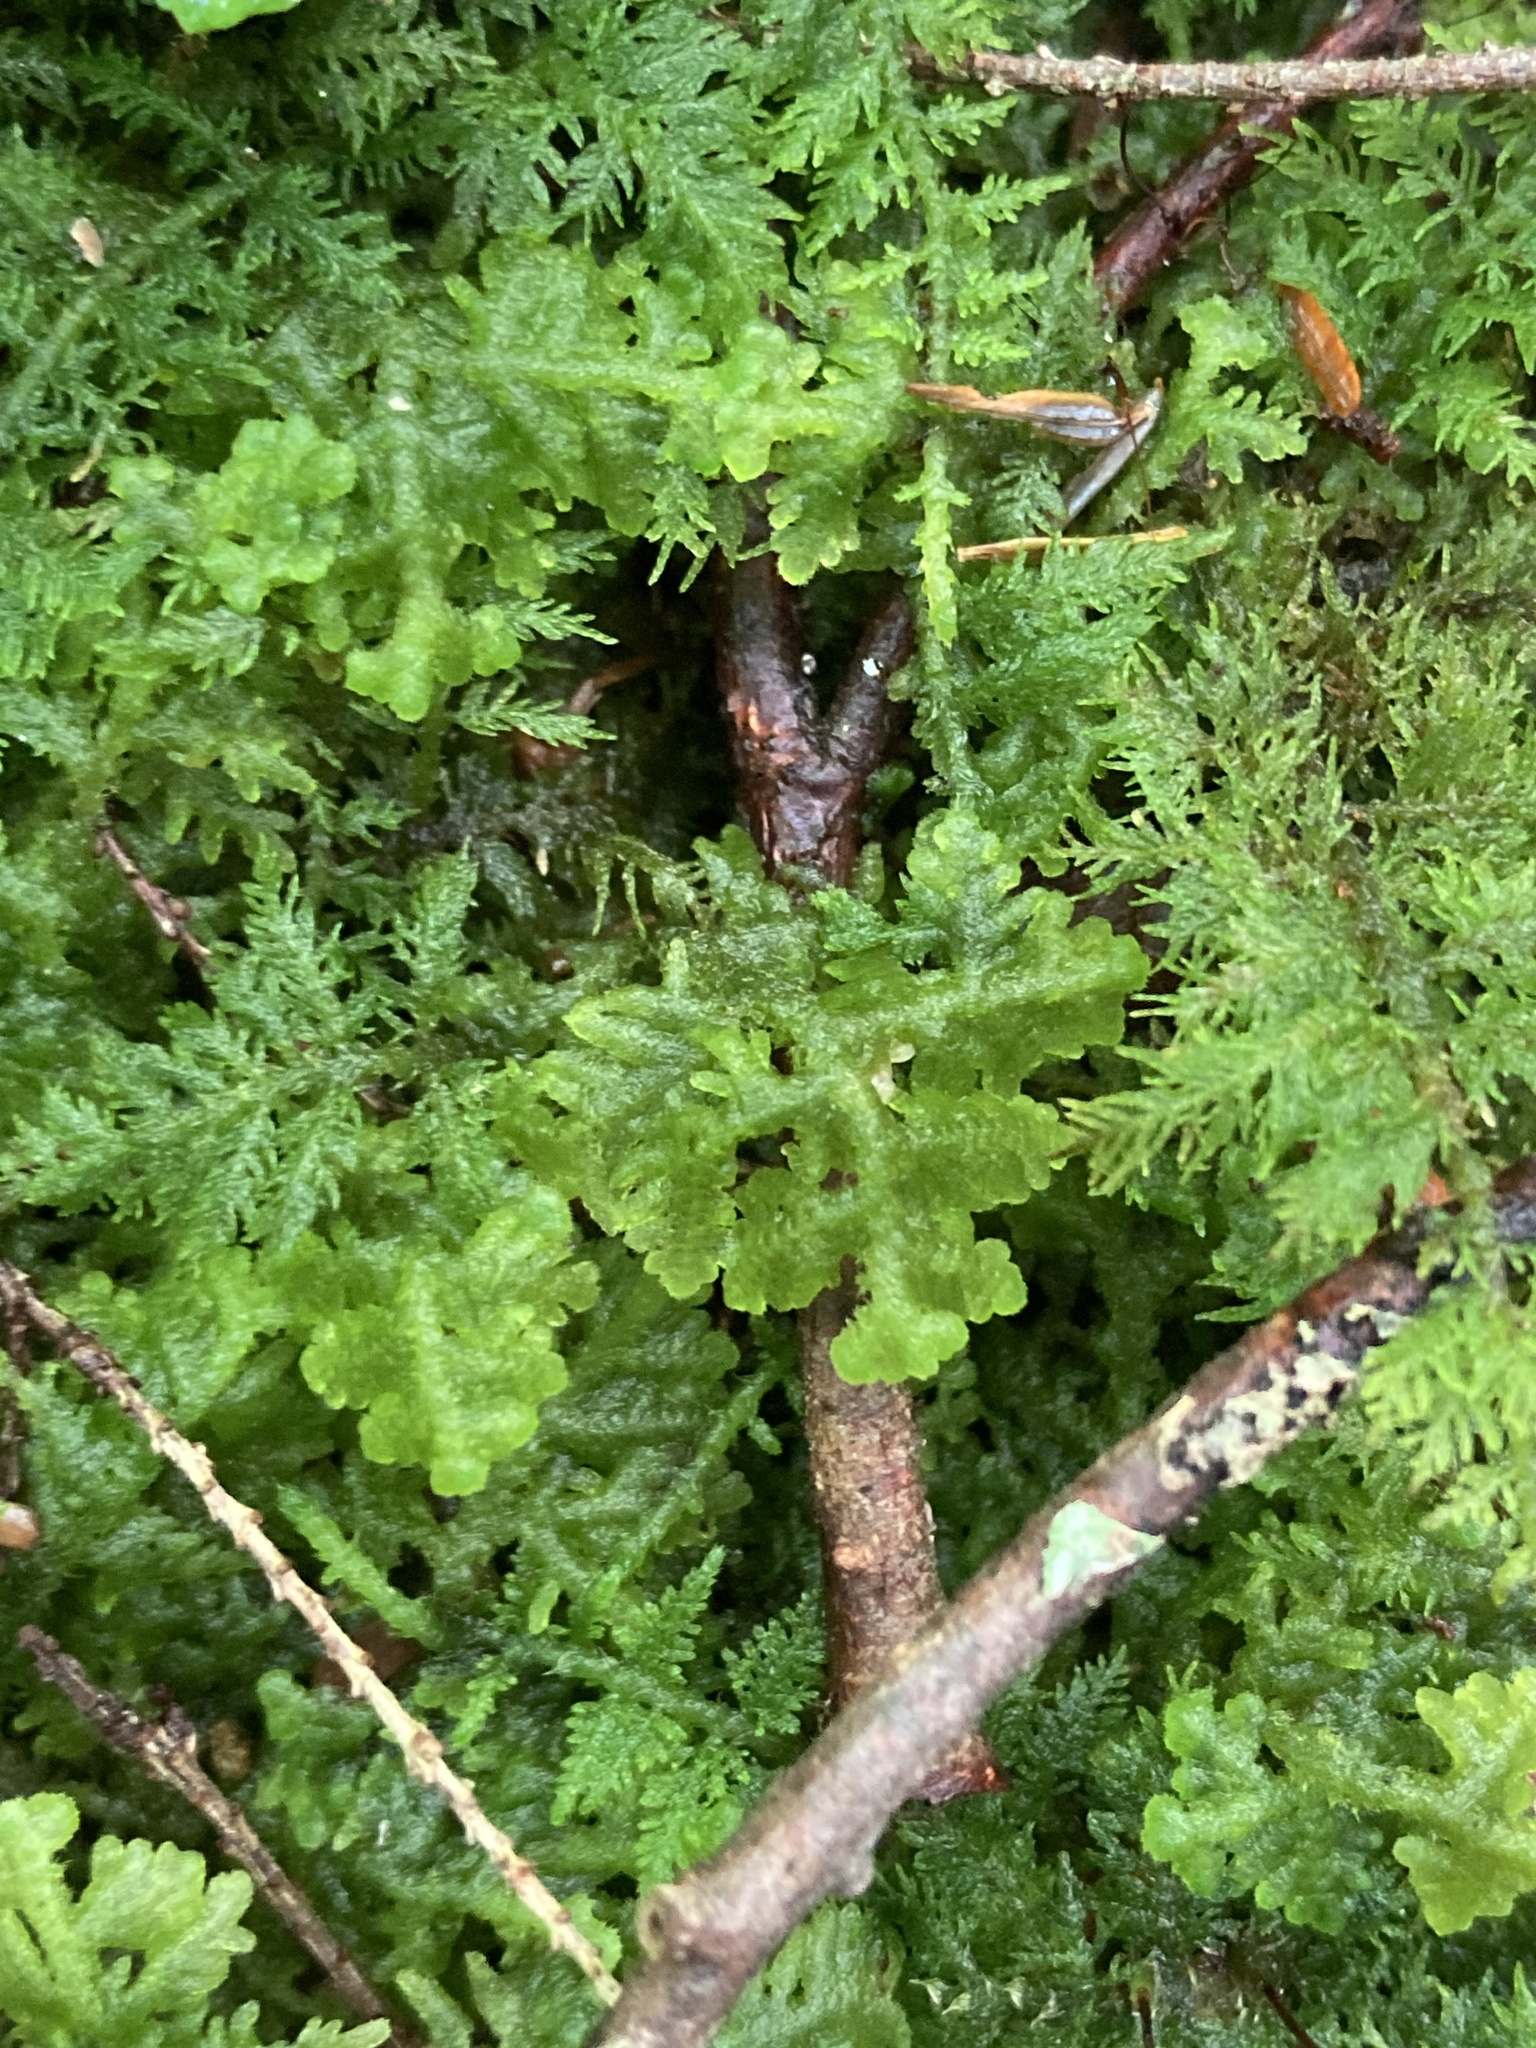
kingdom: Plantae
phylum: Marchantiophyta
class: Jungermanniopsida
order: Jungermanniales
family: Trichocoleaceae
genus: Trichocolea
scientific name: Trichocolea tomentella
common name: Woolly liverwort
